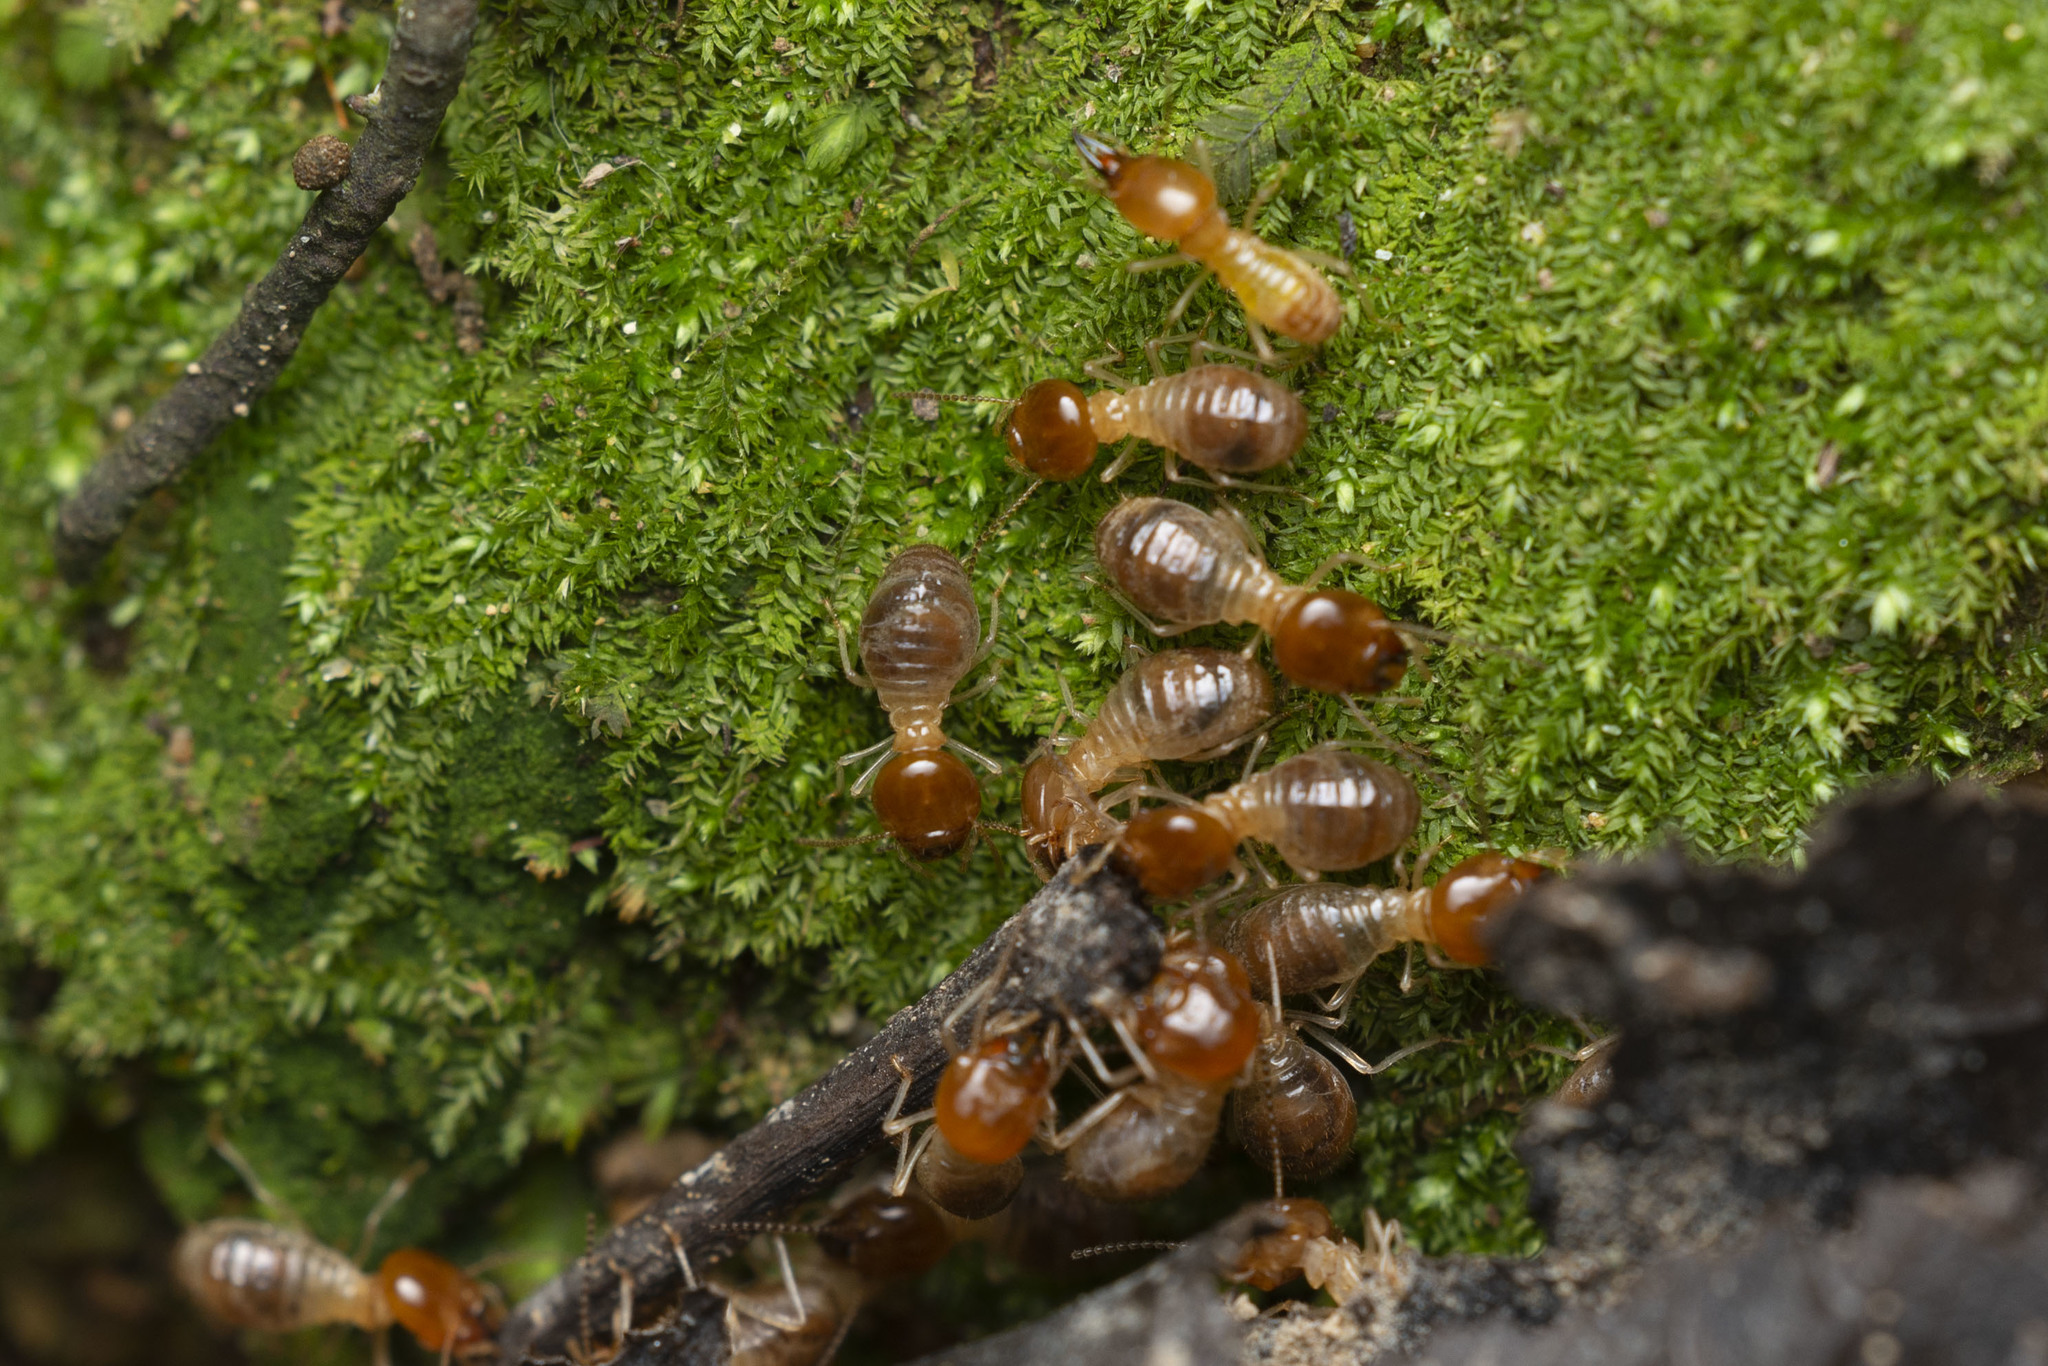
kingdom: Animalia
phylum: Arthropoda
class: Insecta
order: Blattodea
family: Termitidae
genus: Macrotermes
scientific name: Macrotermes barneyi
